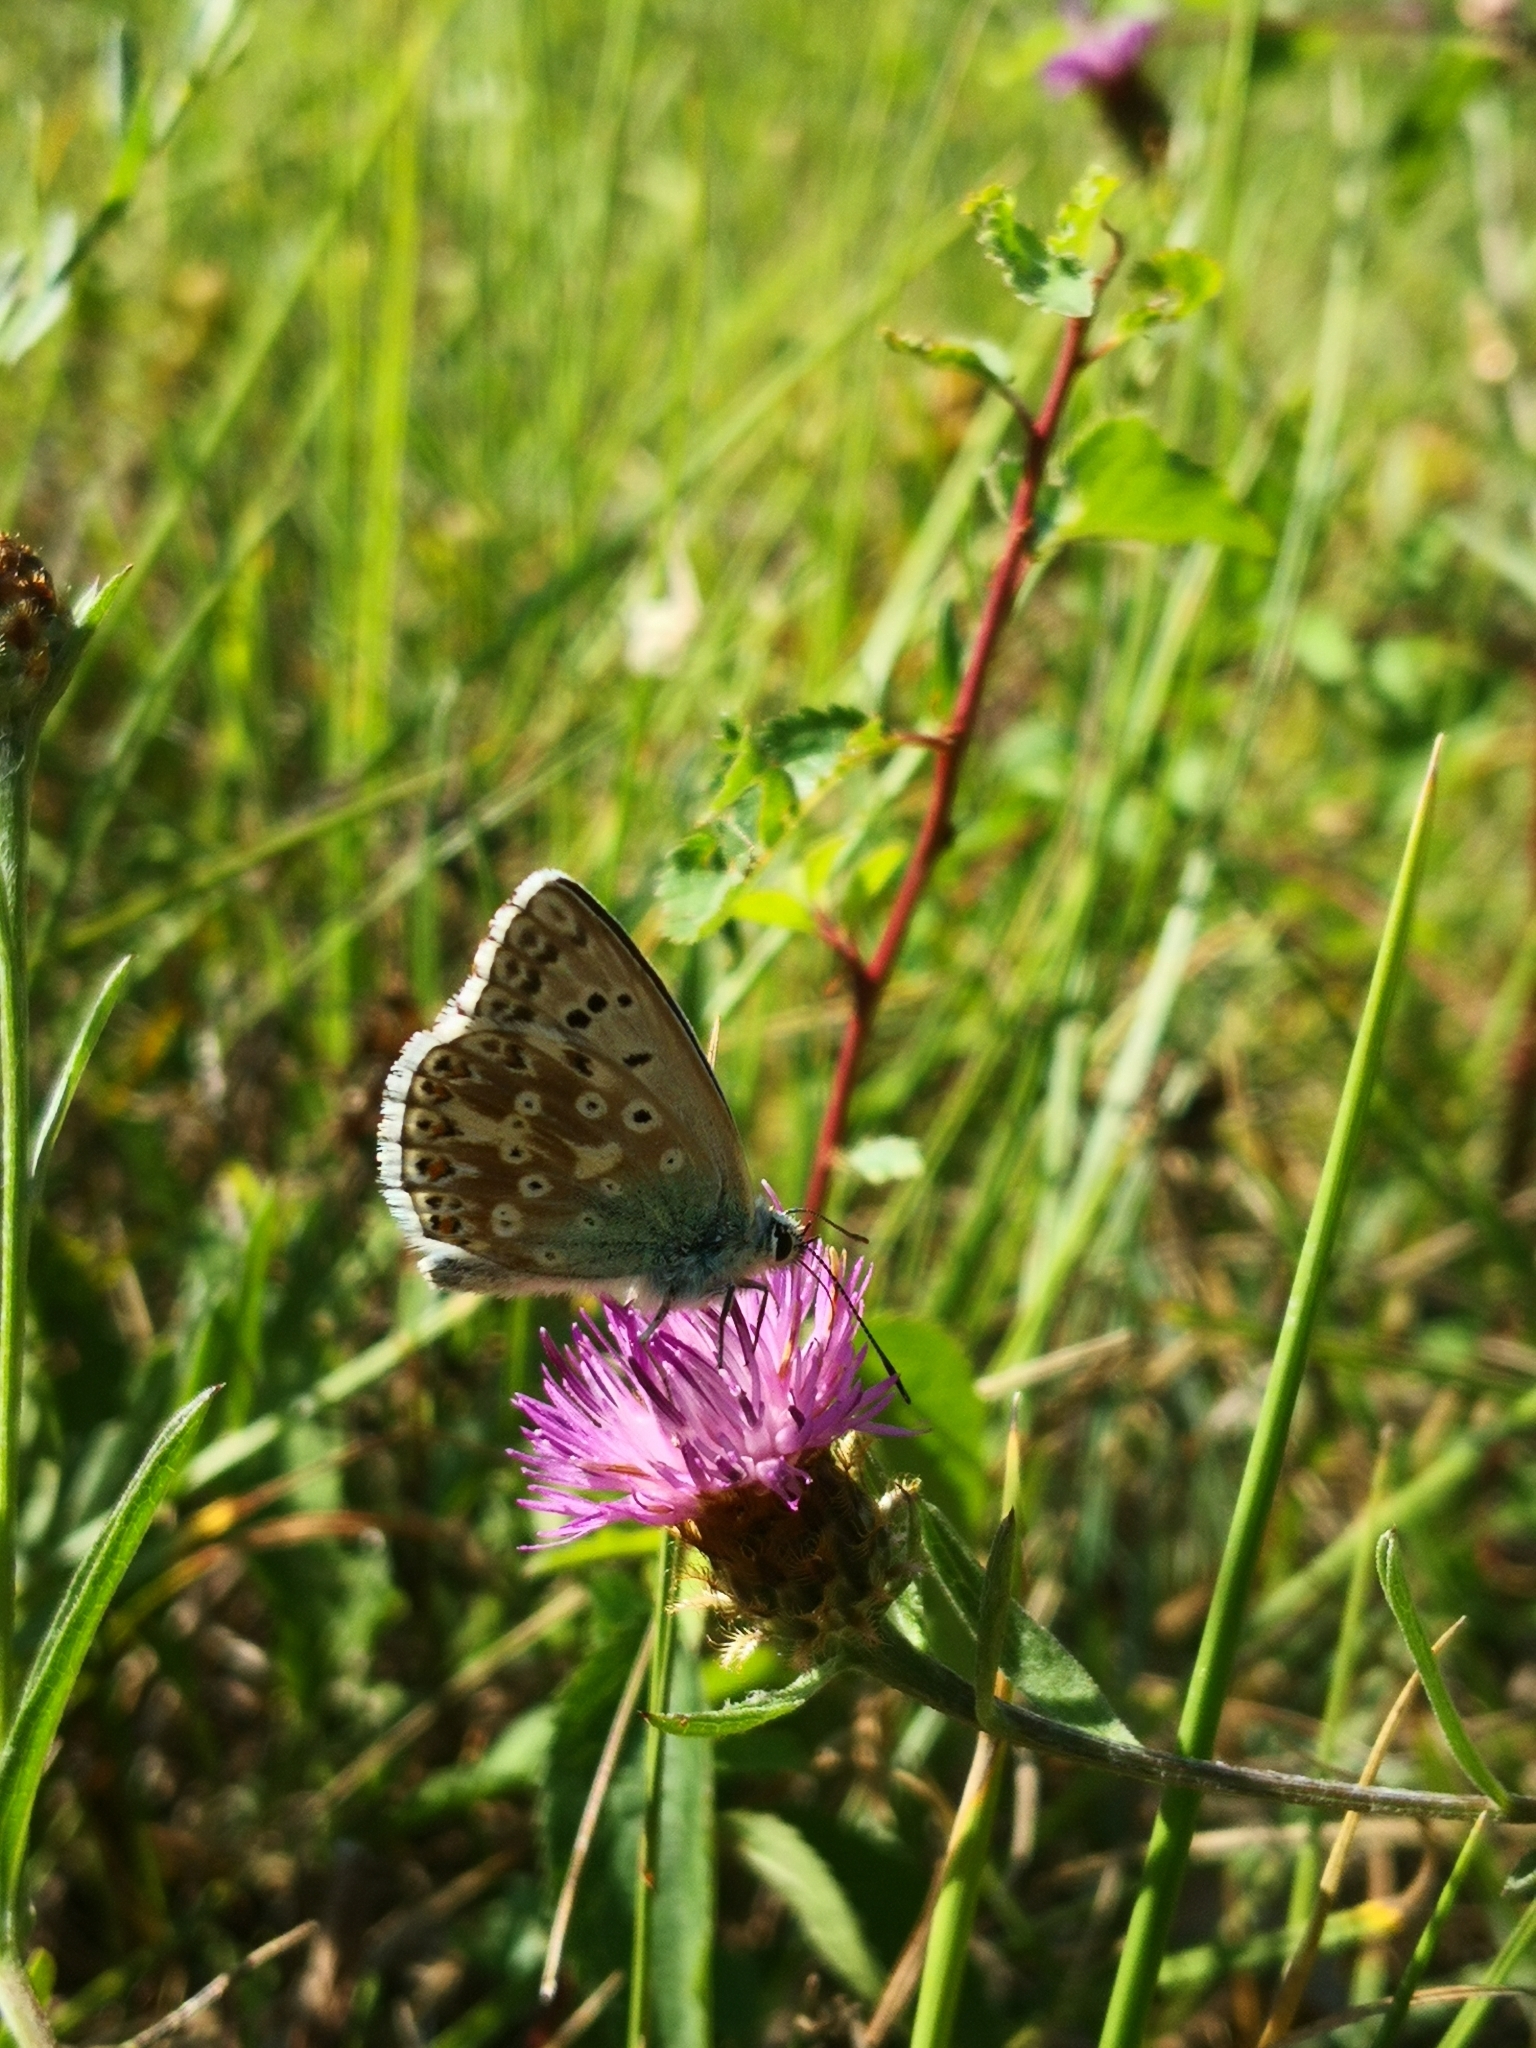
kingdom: Animalia
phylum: Arthropoda
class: Insecta
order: Lepidoptera
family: Lycaenidae
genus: Lysandra
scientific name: Lysandra coridon
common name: Chalkhill blue
